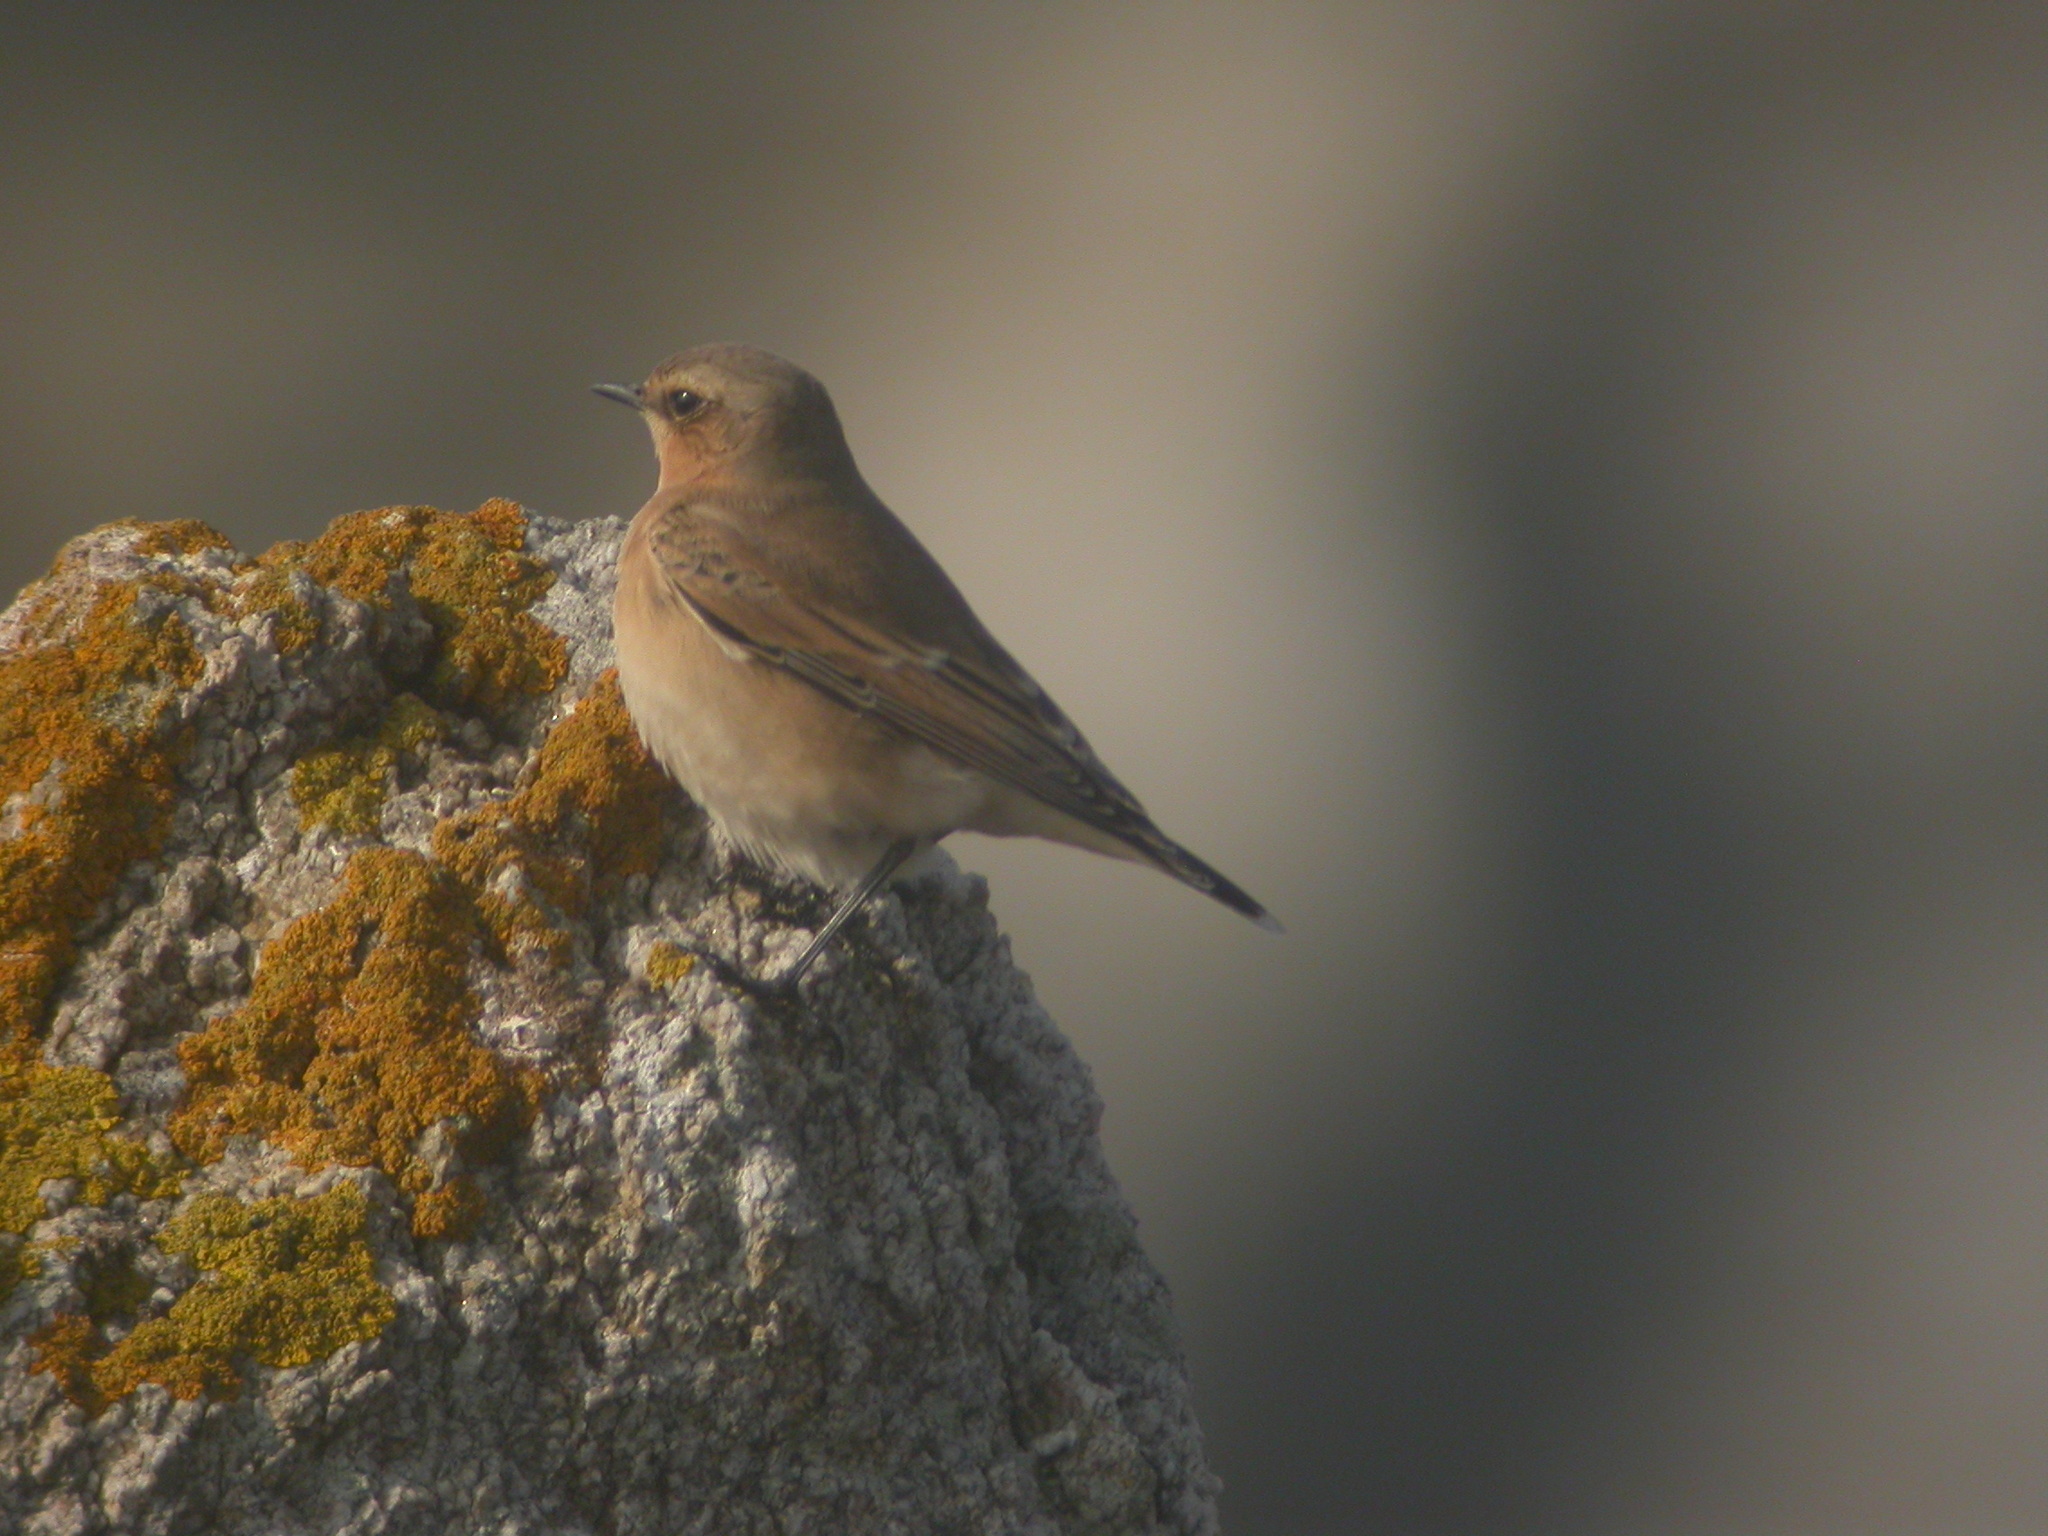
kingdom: Animalia
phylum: Chordata
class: Aves
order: Passeriformes
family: Muscicapidae
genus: Oenanthe
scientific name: Oenanthe oenanthe
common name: Northern wheatear
